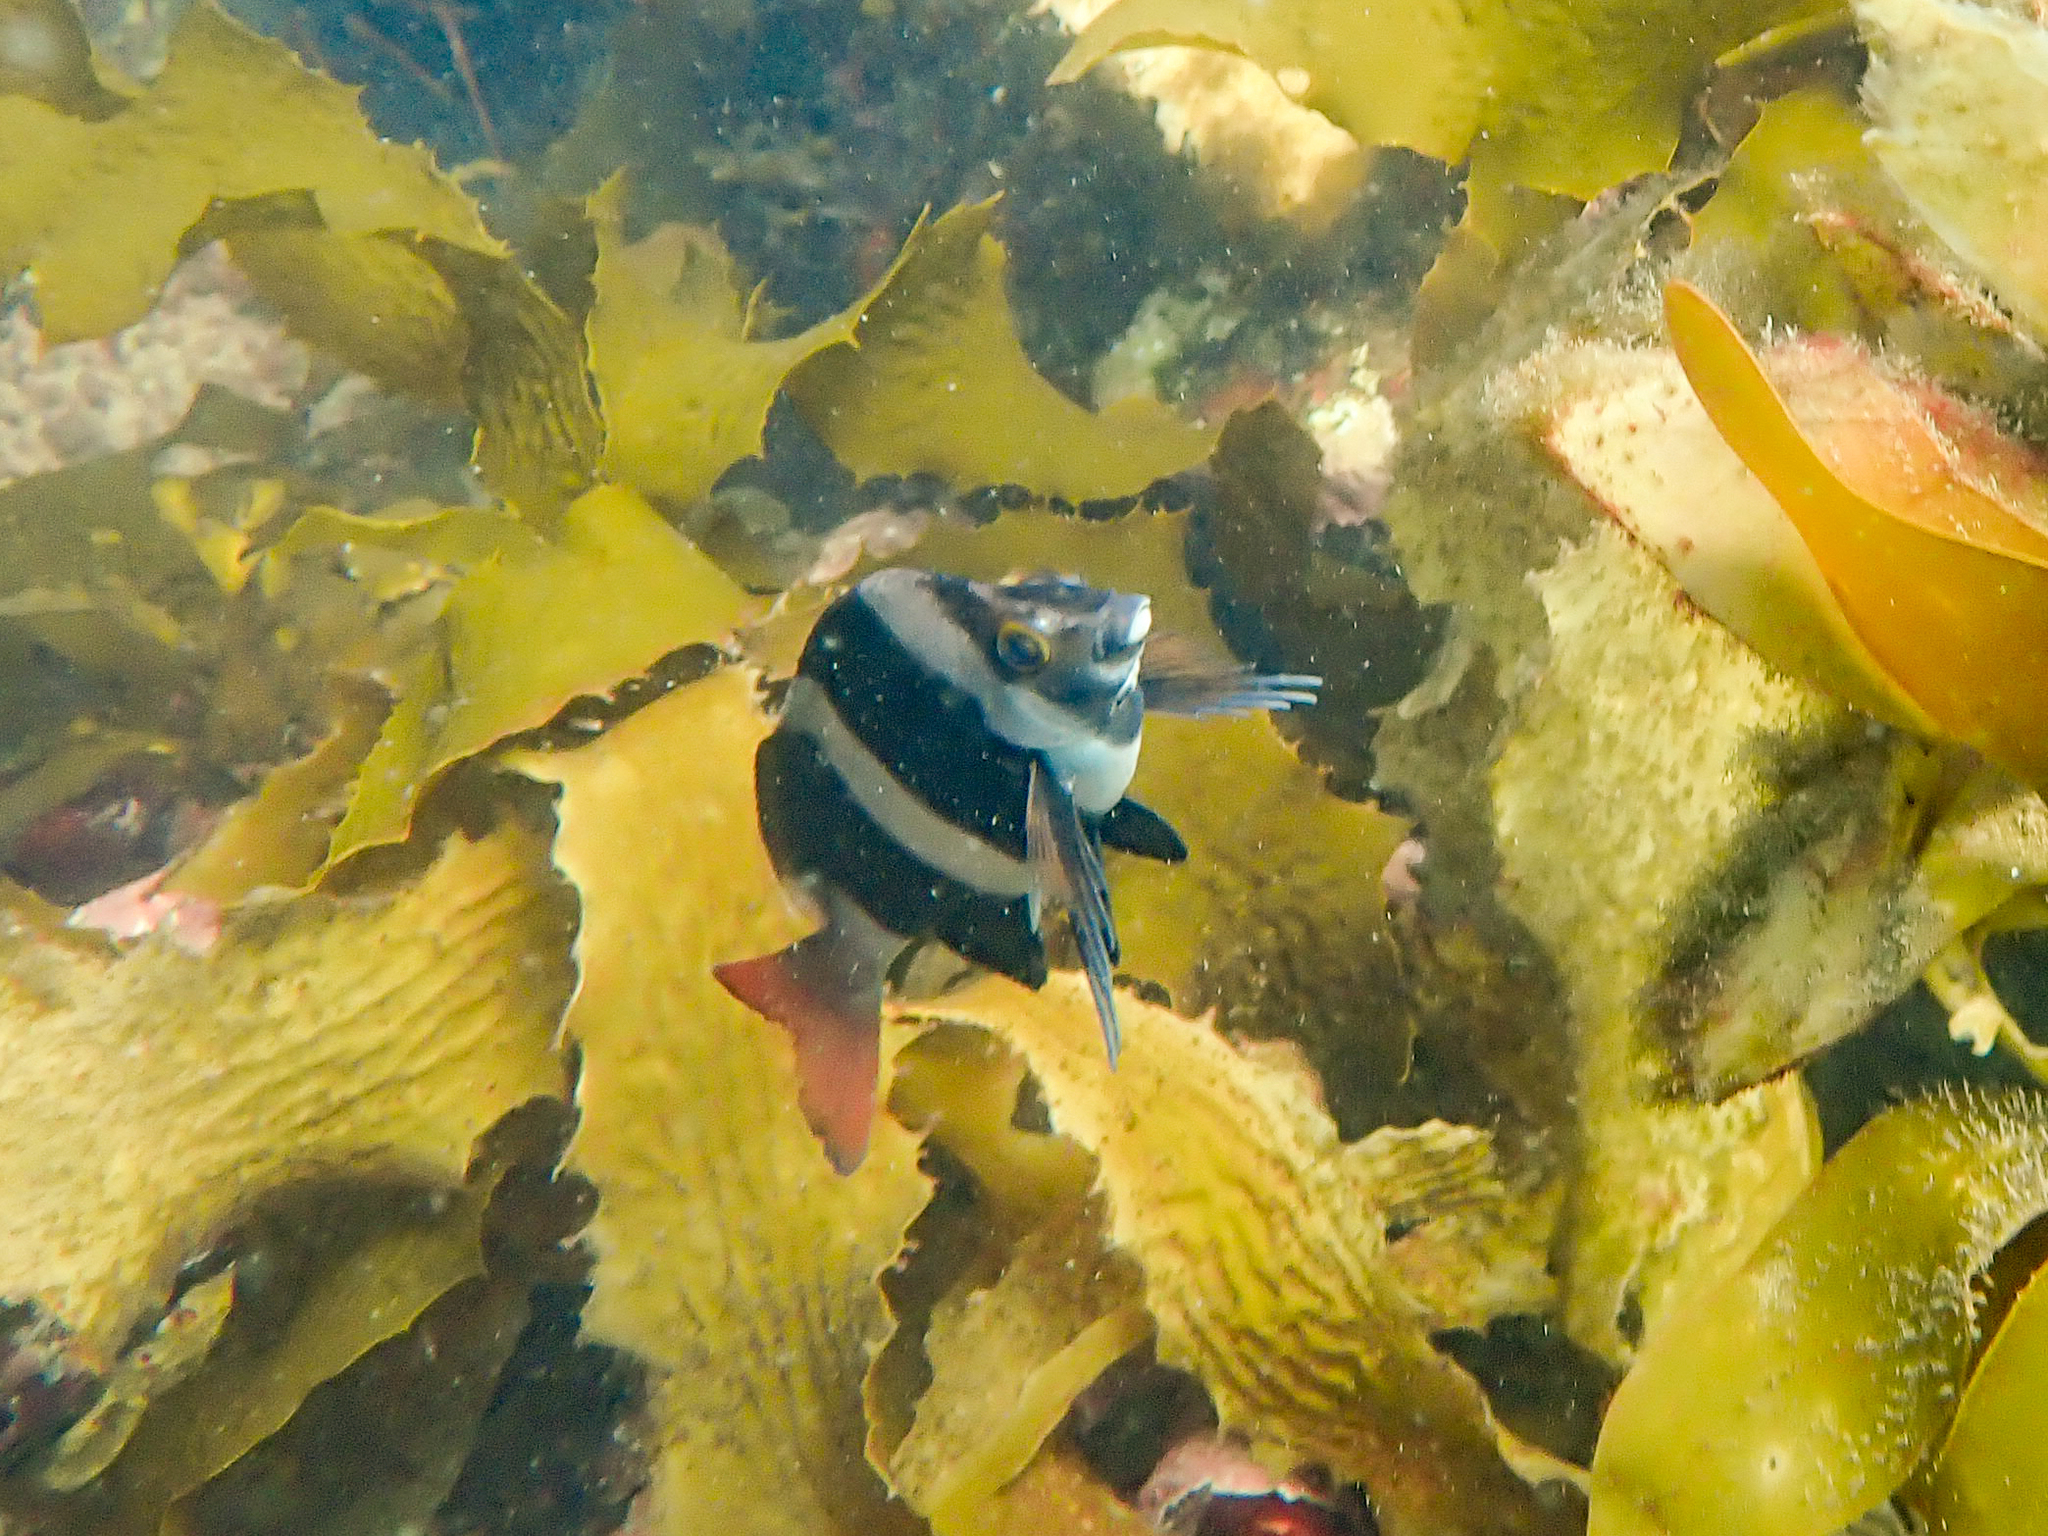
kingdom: Animalia
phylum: Chordata
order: Perciformes
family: Latridae
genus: Pseudogoniistius
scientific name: Pseudogoniistius nigripes
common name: Black-striped morwong
